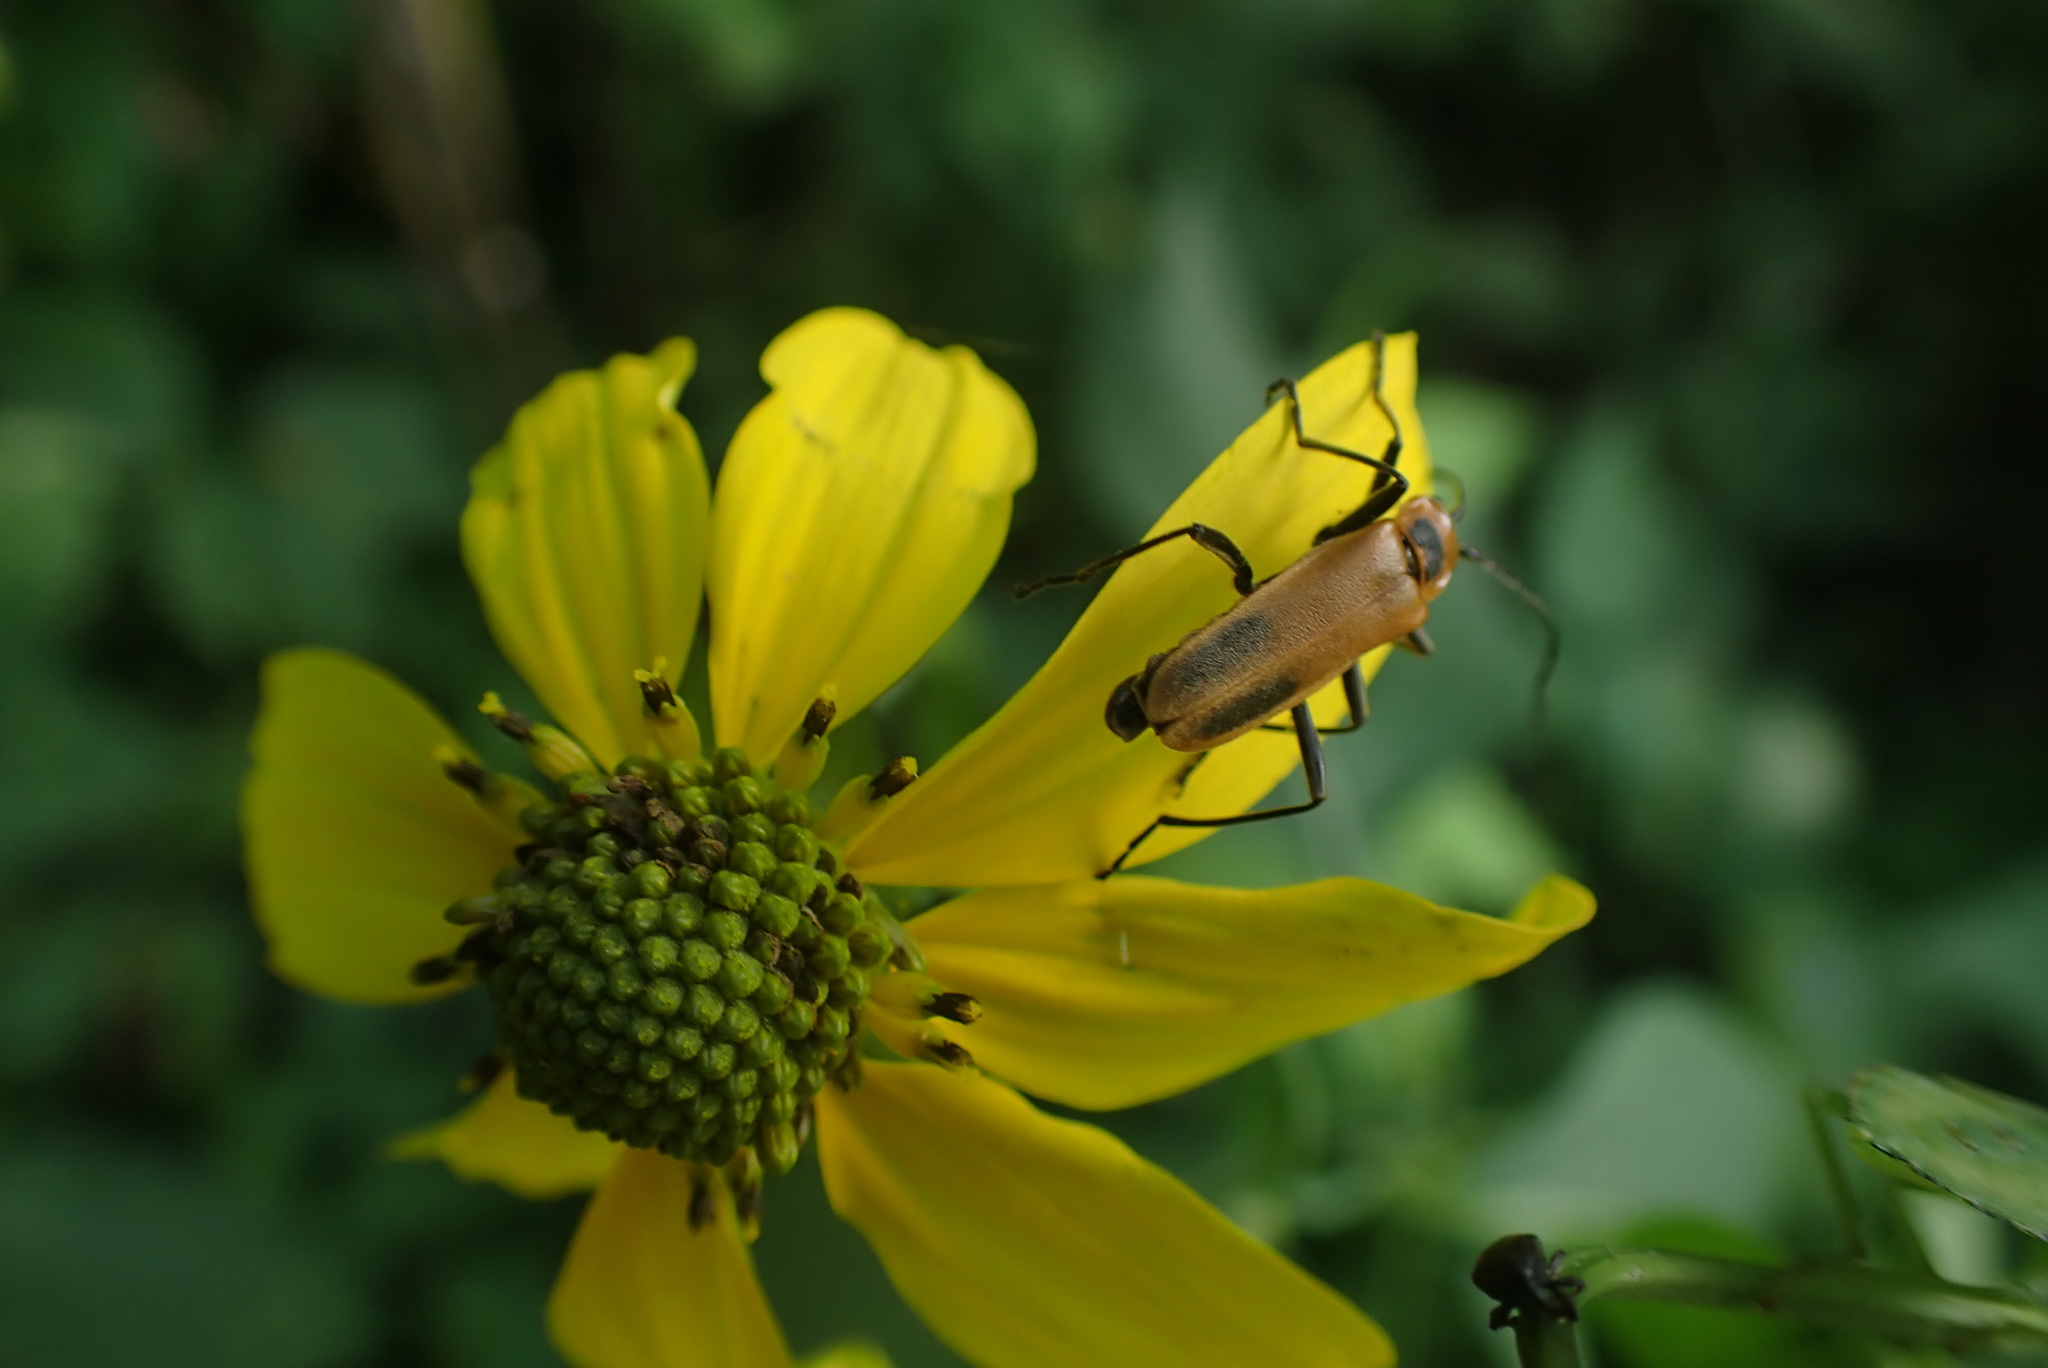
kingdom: Animalia
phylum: Arthropoda
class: Insecta
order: Coleoptera
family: Cantharidae
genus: Chauliognathus
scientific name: Chauliognathus pensylvanicus
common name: Goldenrod soldier beetle
